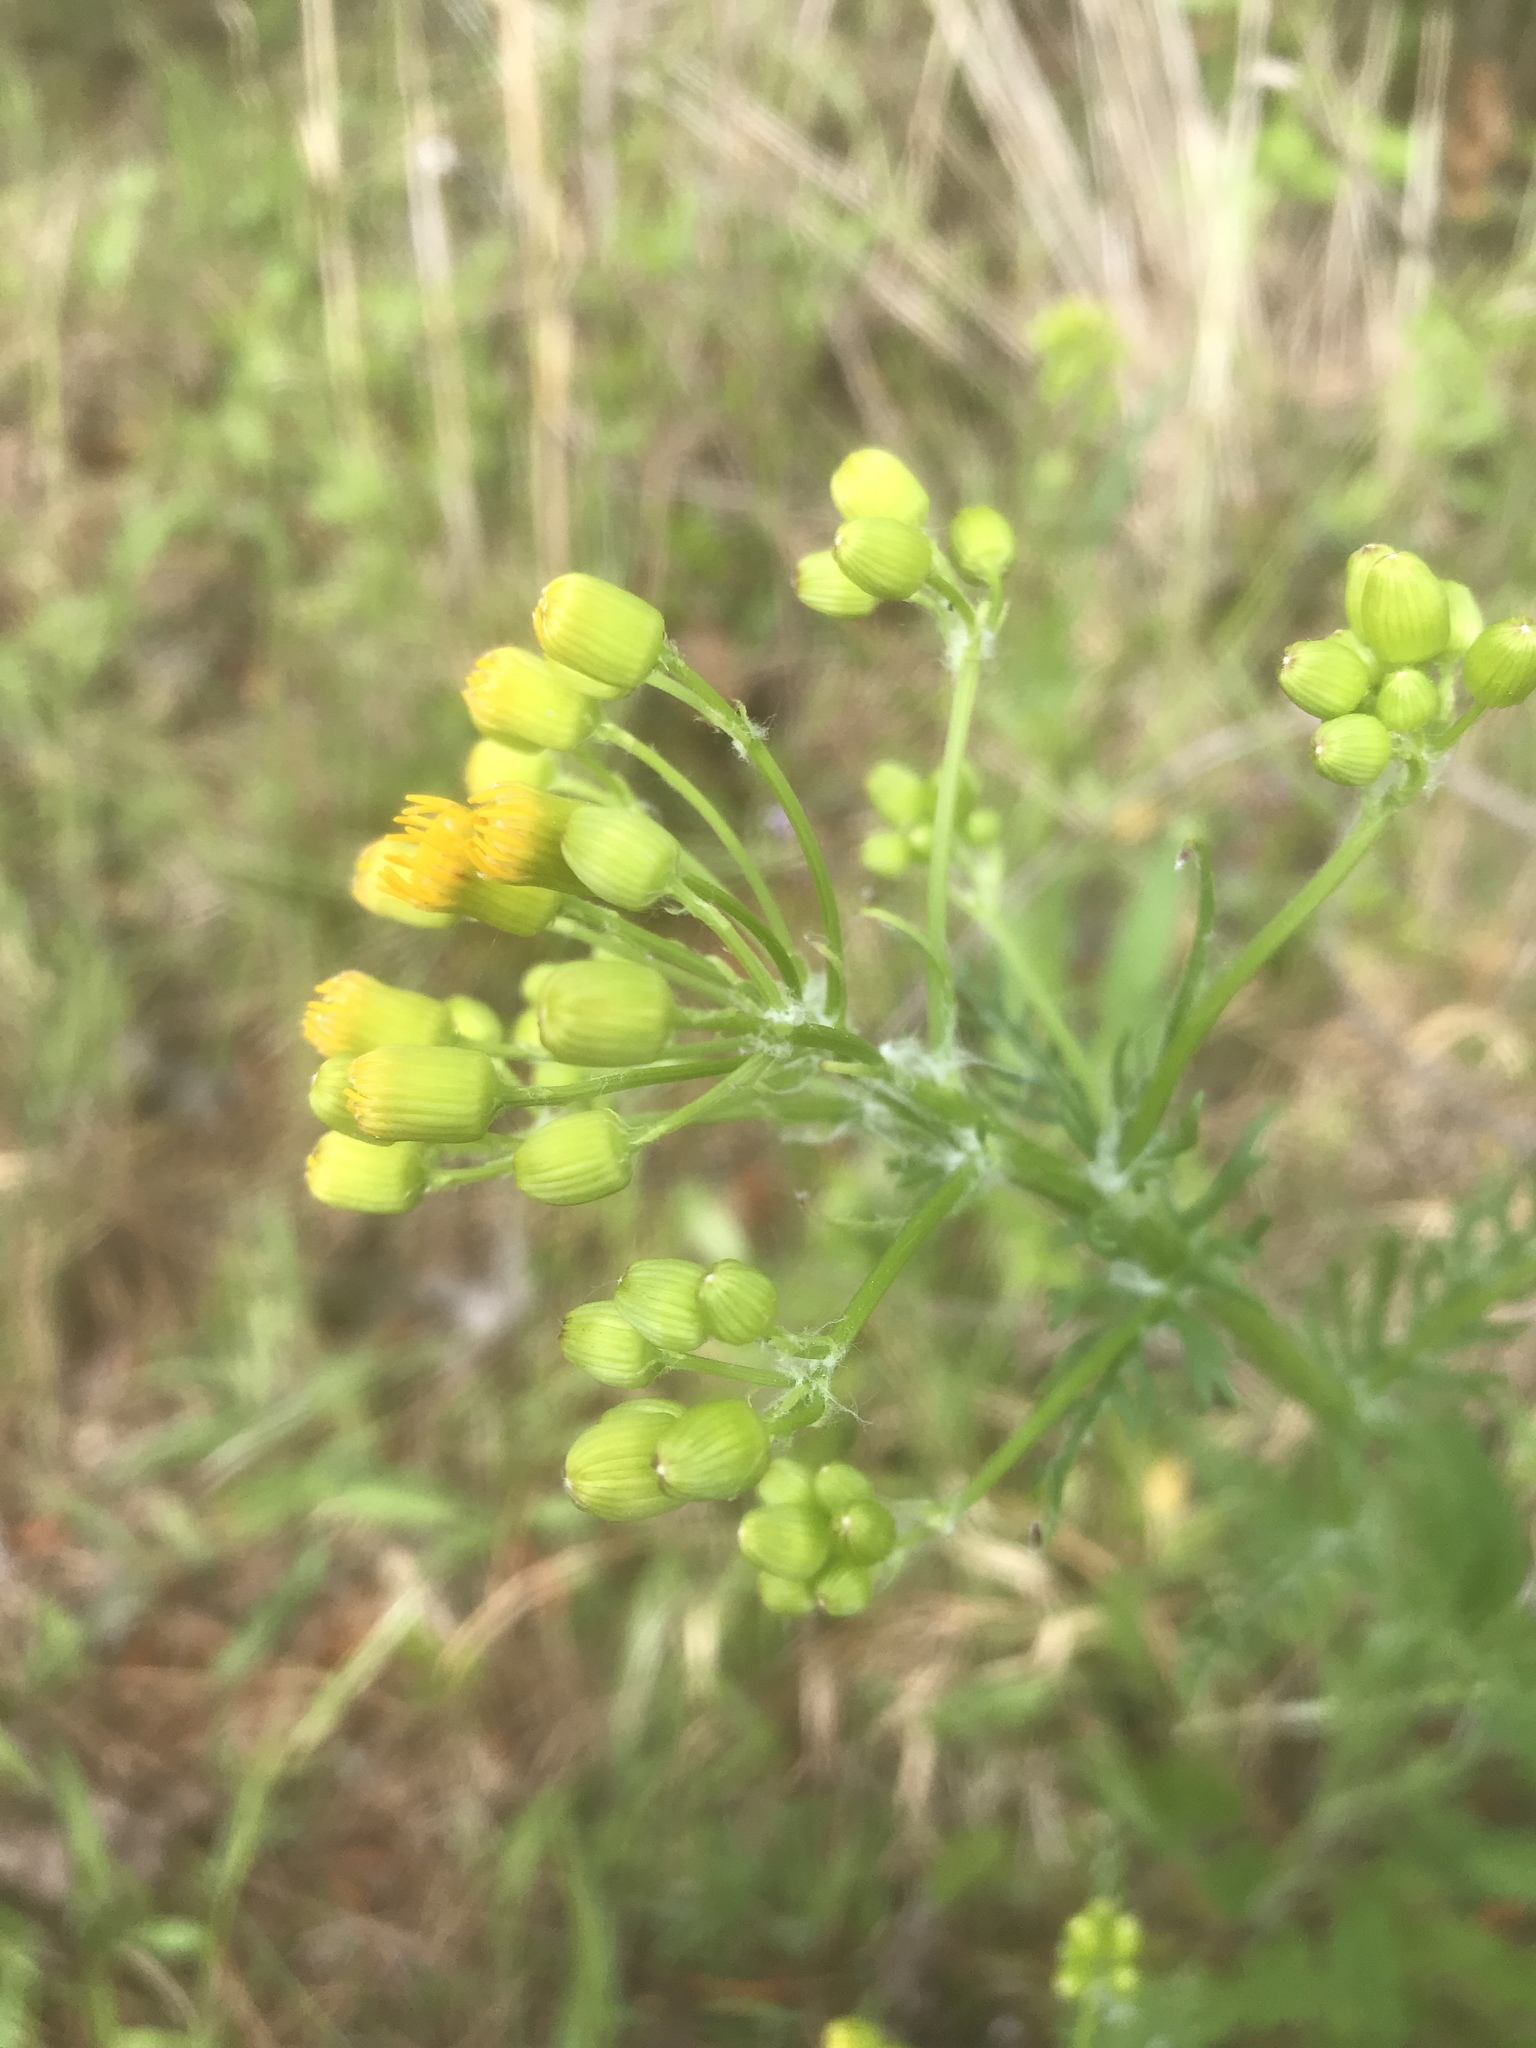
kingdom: Plantae
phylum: Tracheophyta
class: Magnoliopsida
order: Asterales
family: Asteraceae
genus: Packera
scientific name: Packera anonyma
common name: Small ragwort
